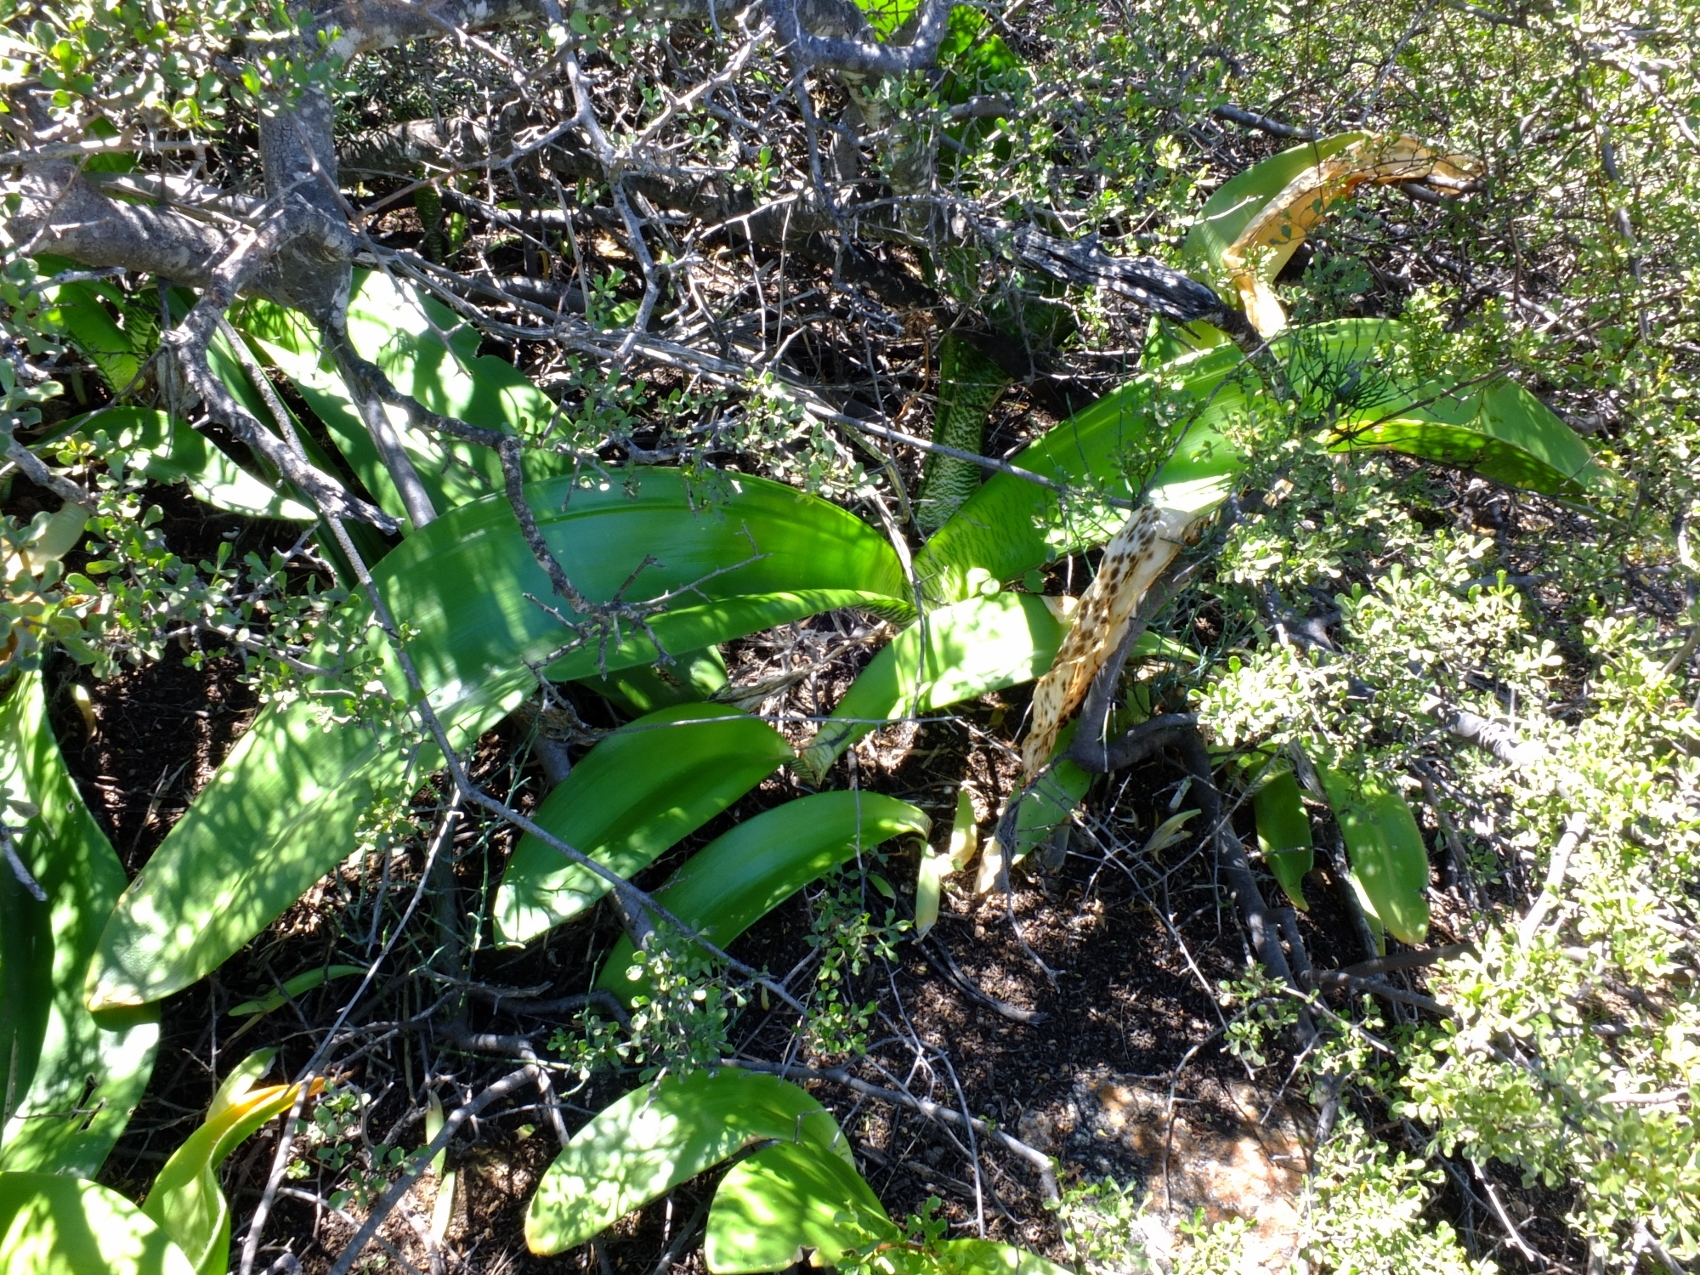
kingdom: Plantae
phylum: Tracheophyta
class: Liliopsida
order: Asparagales
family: Amaryllidaceae
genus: Haemanthus
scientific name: Haemanthus coccineus
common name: Cape-tulip
